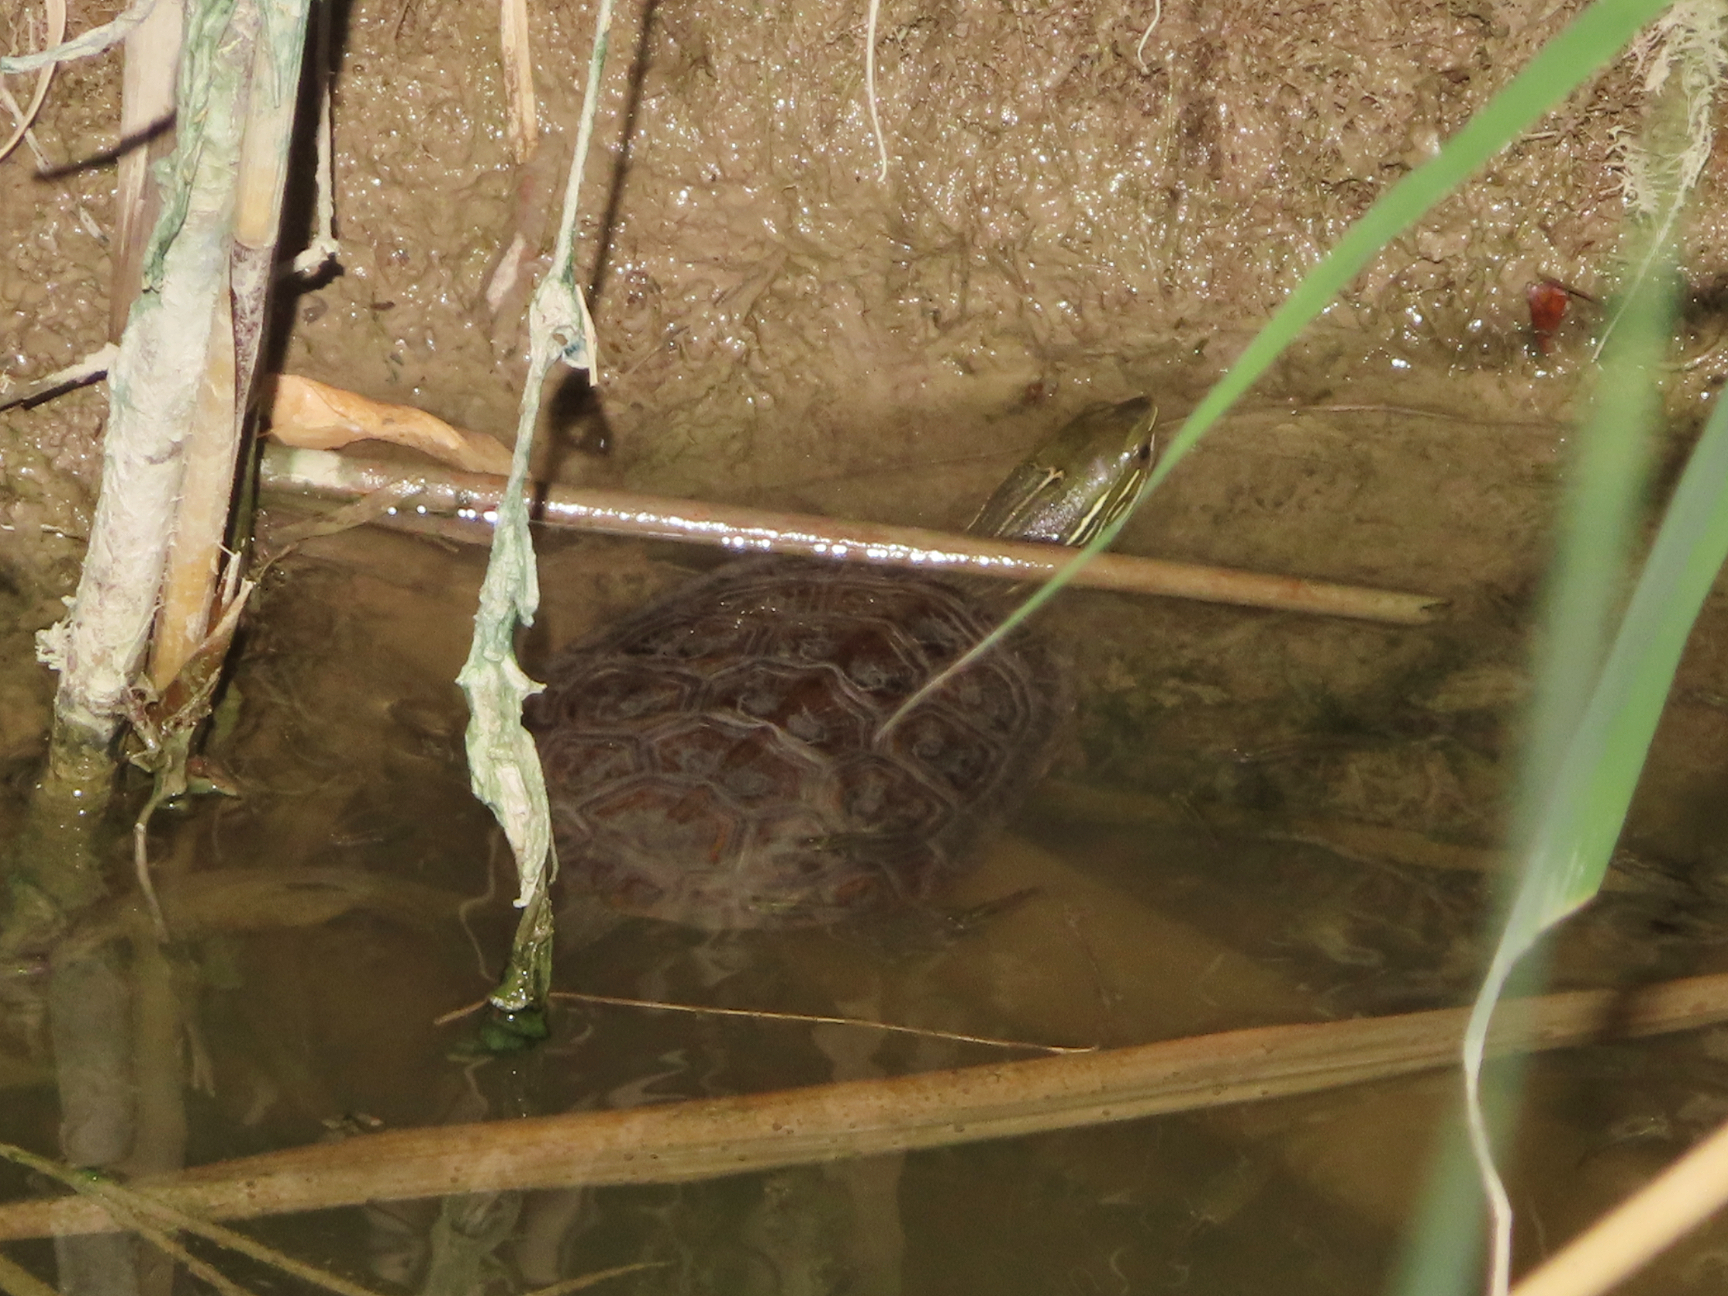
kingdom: Animalia
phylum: Chordata
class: Testudines
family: Geoemydidae
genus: Mauremys
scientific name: Mauremys caspica
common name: Caspian turtle
